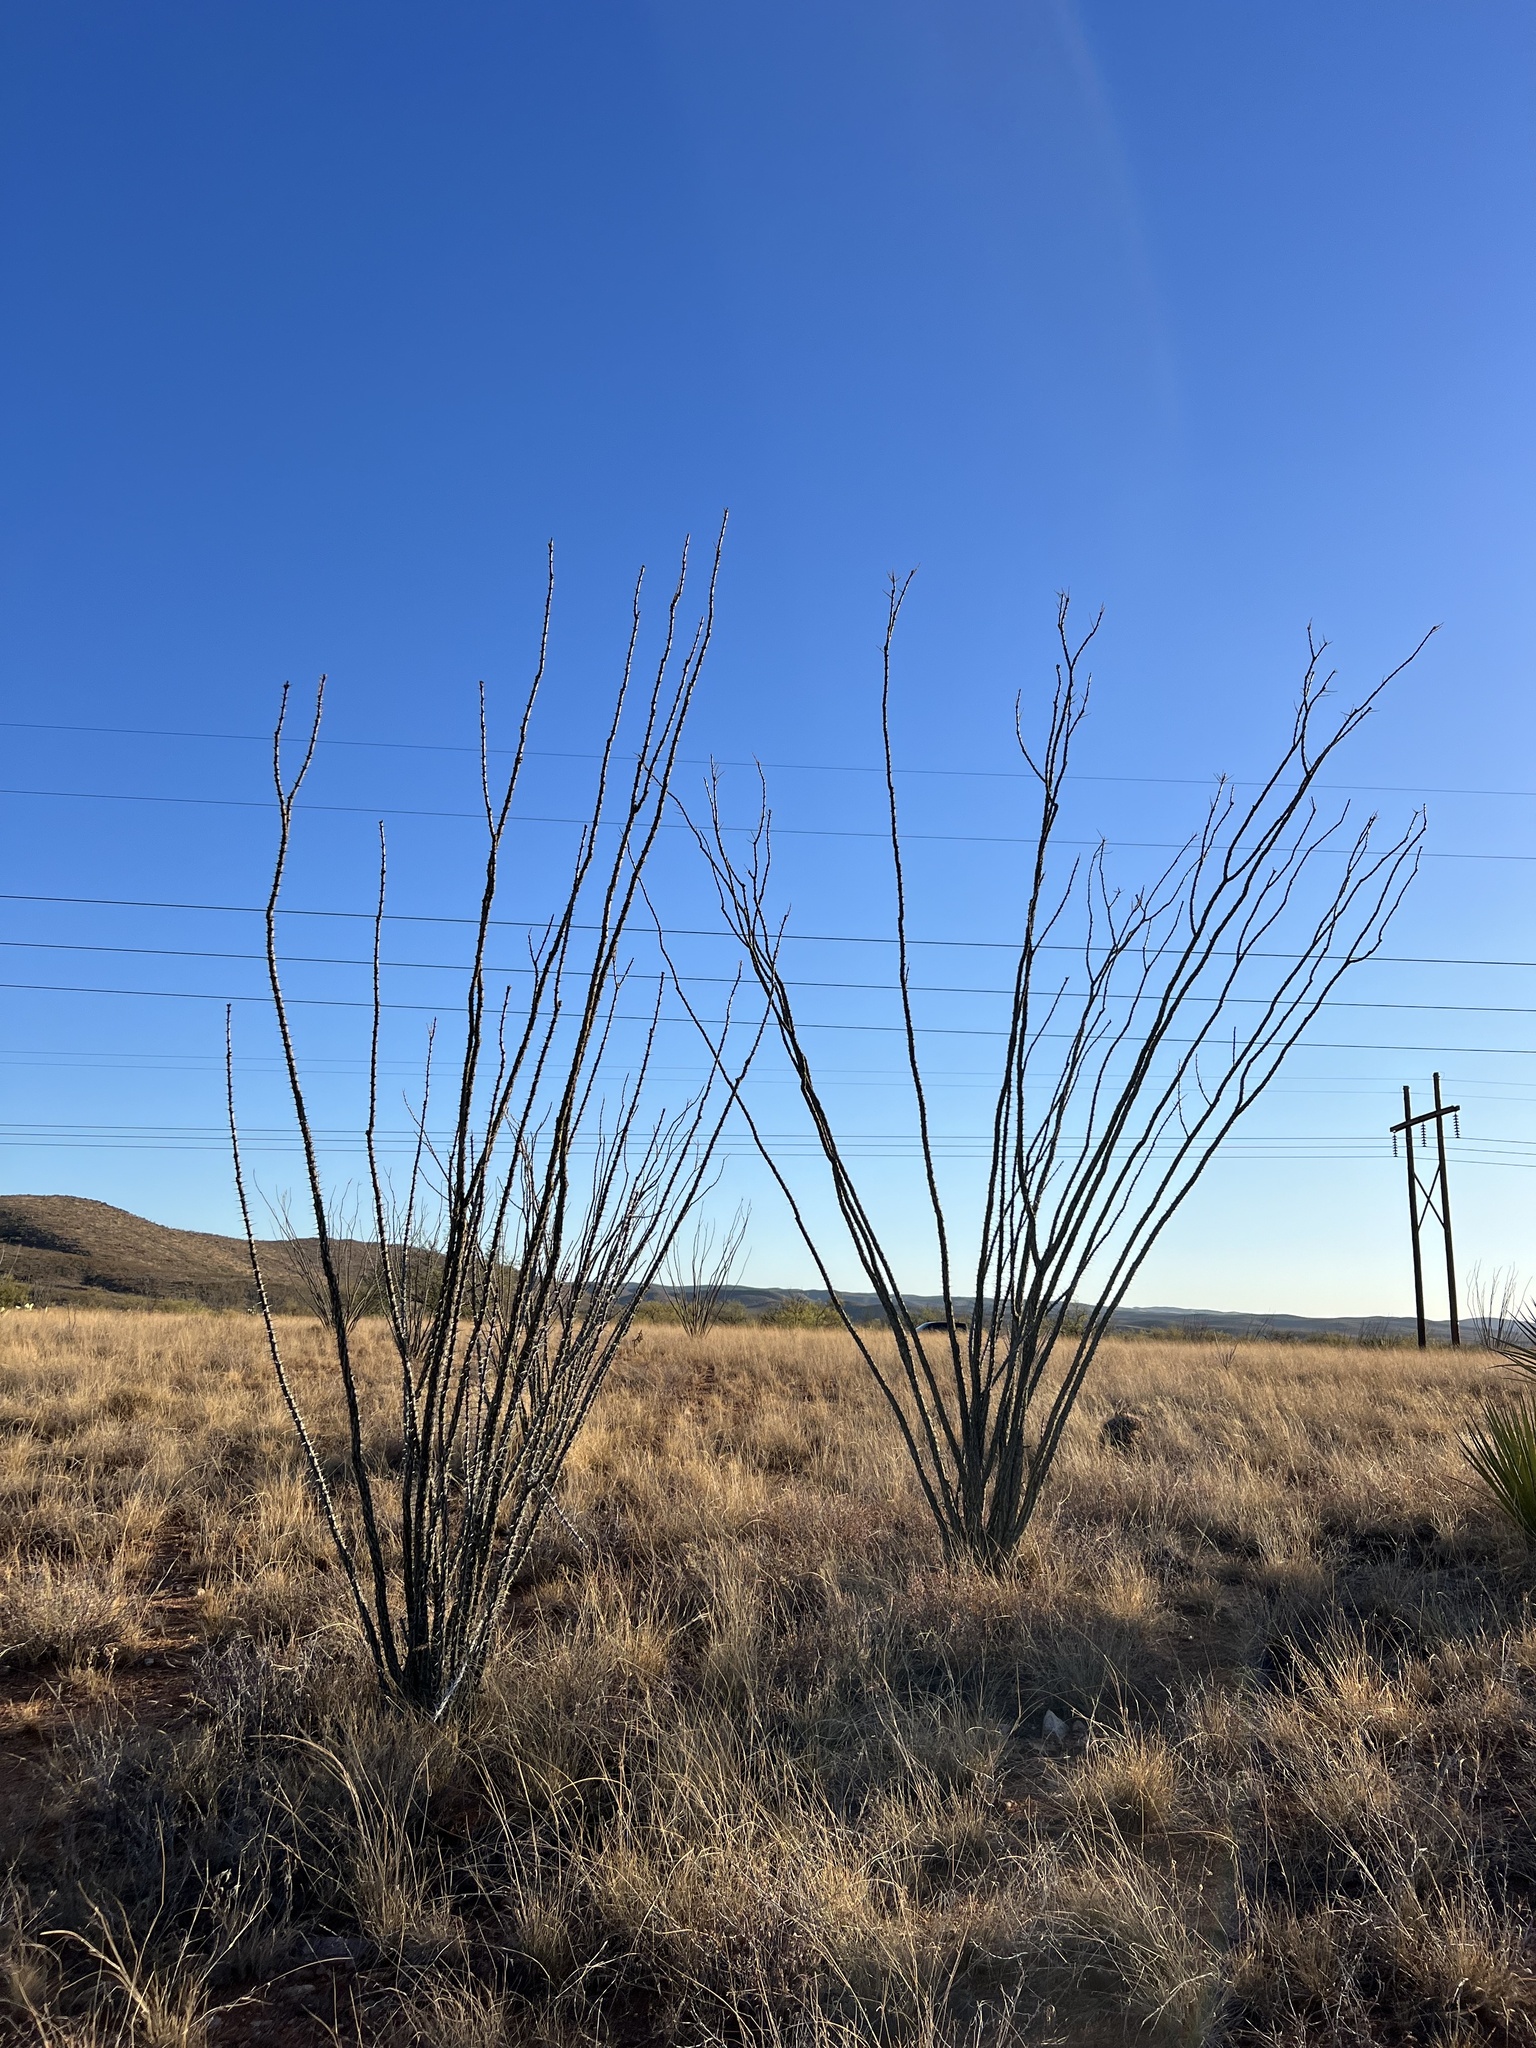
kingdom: Plantae
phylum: Tracheophyta
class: Magnoliopsida
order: Ericales
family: Fouquieriaceae
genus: Fouquieria
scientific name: Fouquieria splendens
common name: Vine-cactus
